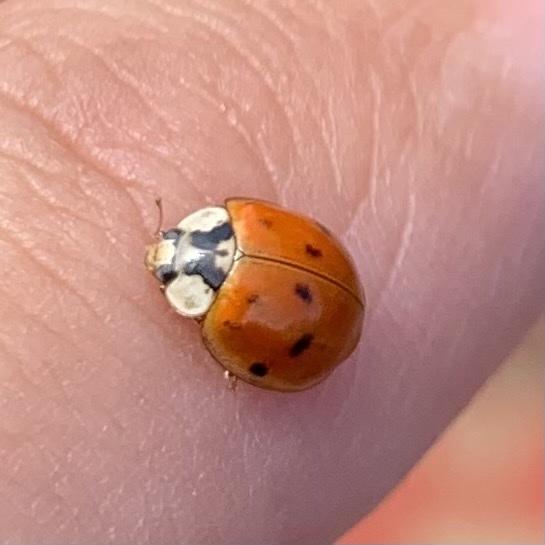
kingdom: Animalia
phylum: Arthropoda
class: Insecta
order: Coleoptera
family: Coccinellidae
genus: Harmonia
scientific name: Harmonia axyridis
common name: Harlequin ladybird
